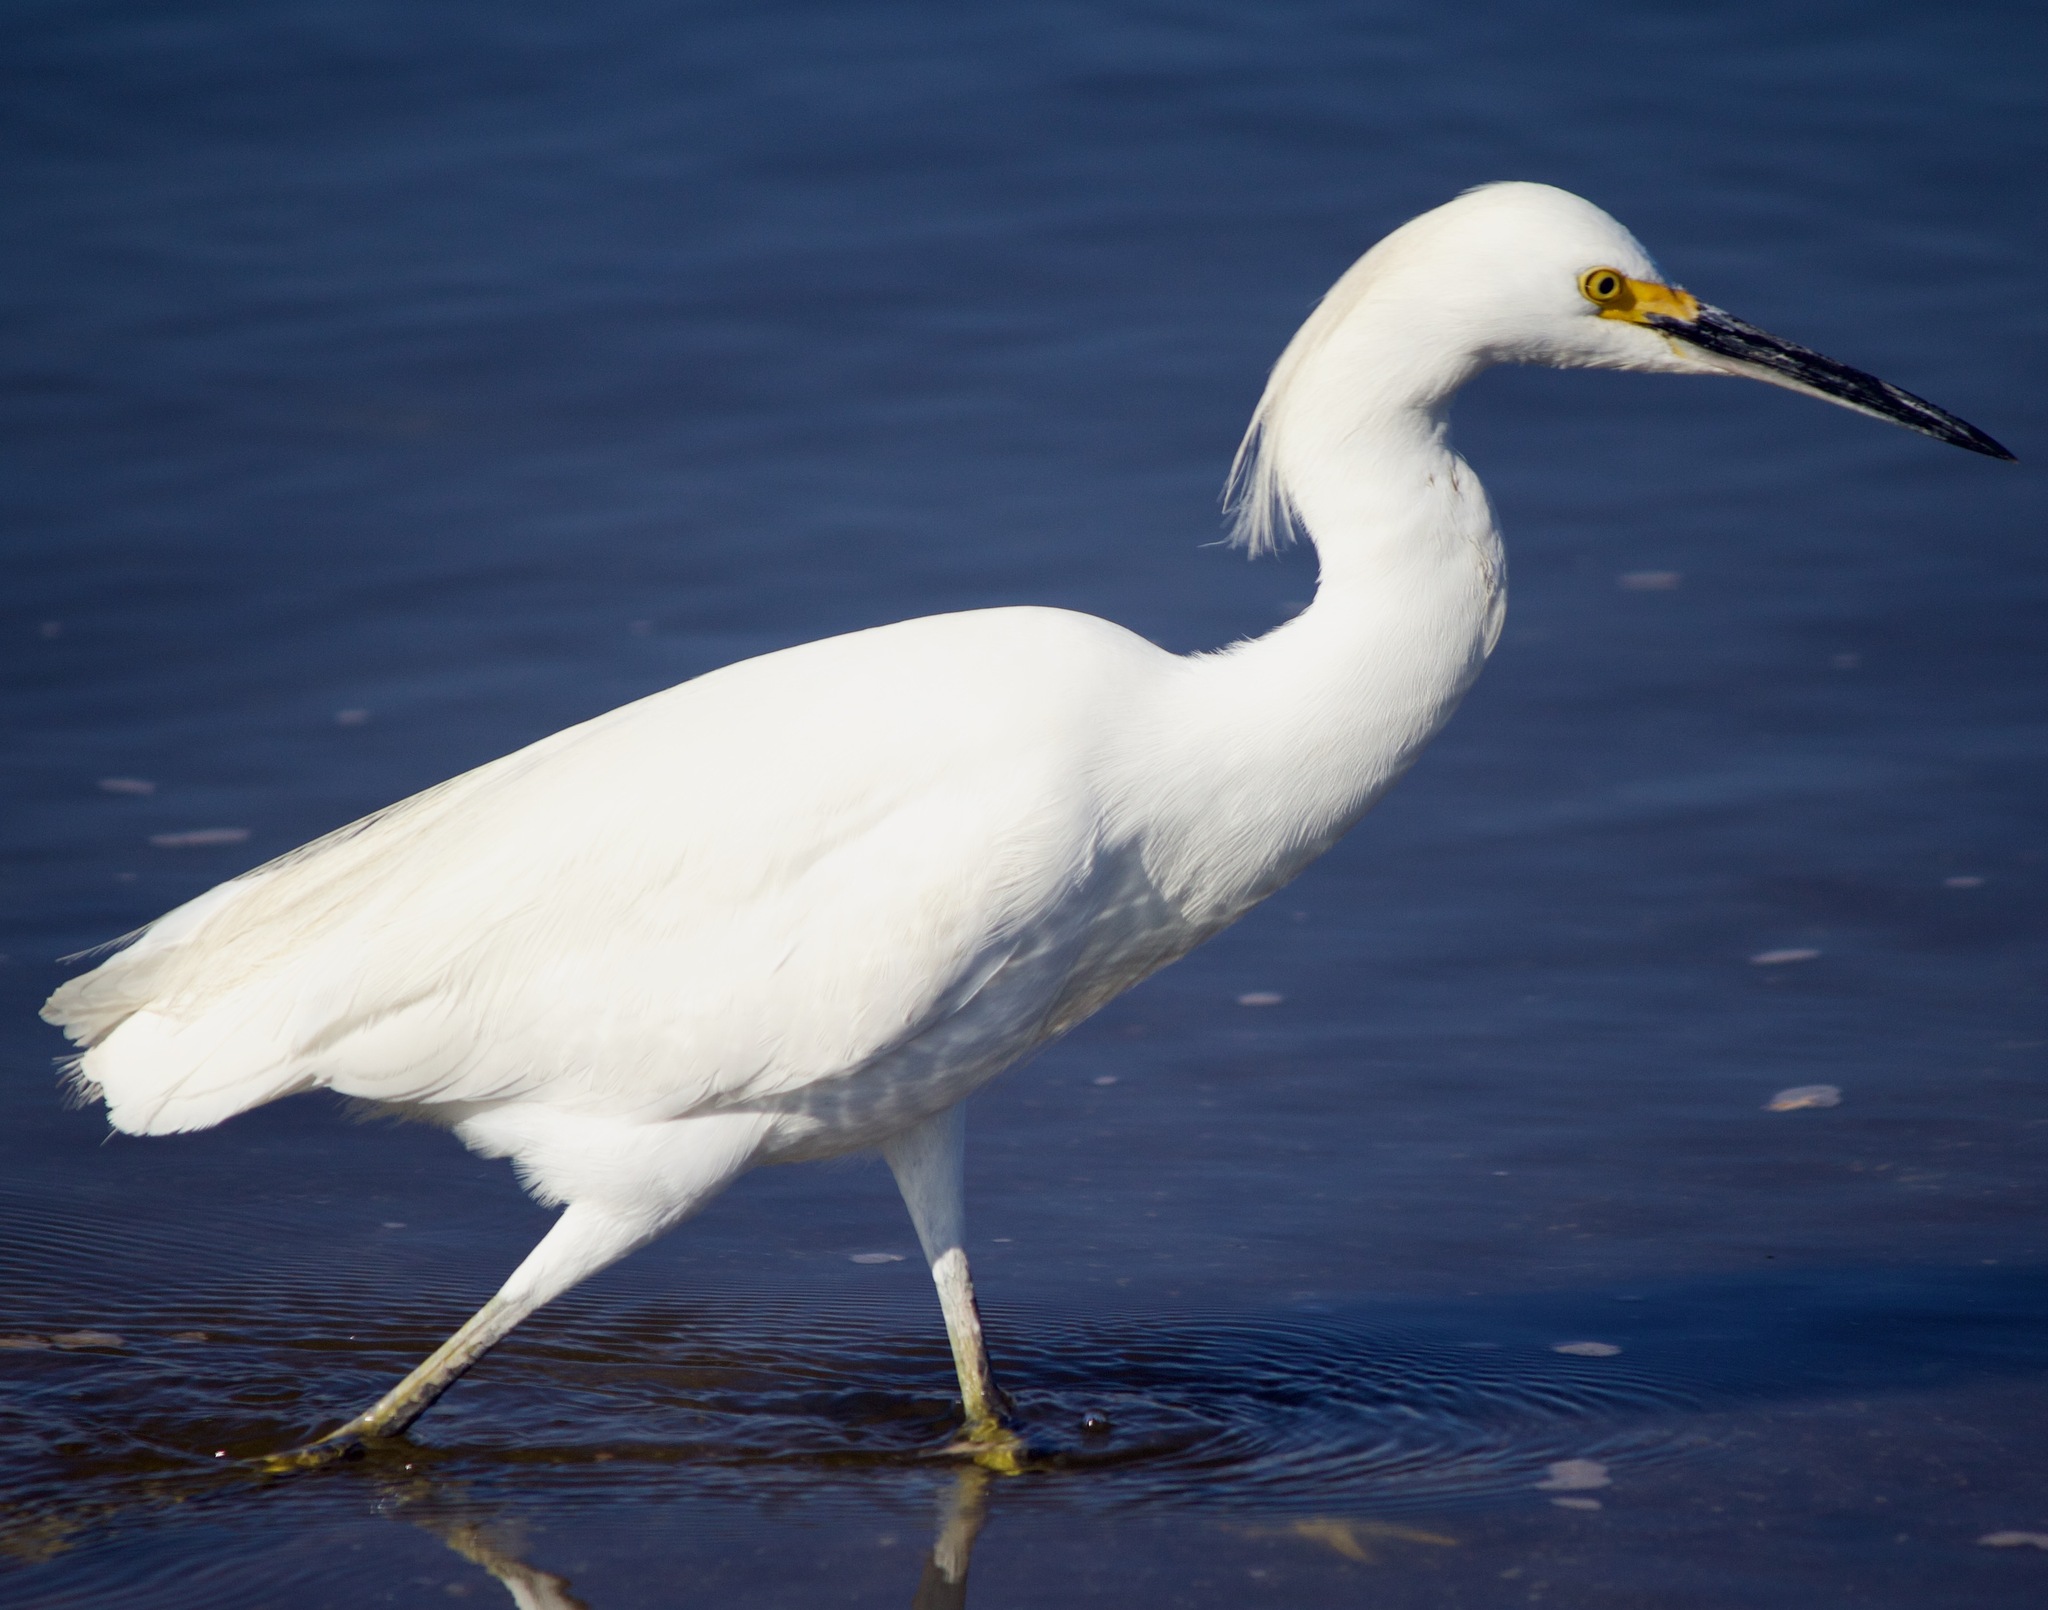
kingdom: Animalia
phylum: Chordata
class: Aves
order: Pelecaniformes
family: Ardeidae
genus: Egretta
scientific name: Egretta thula
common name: Snowy egret
